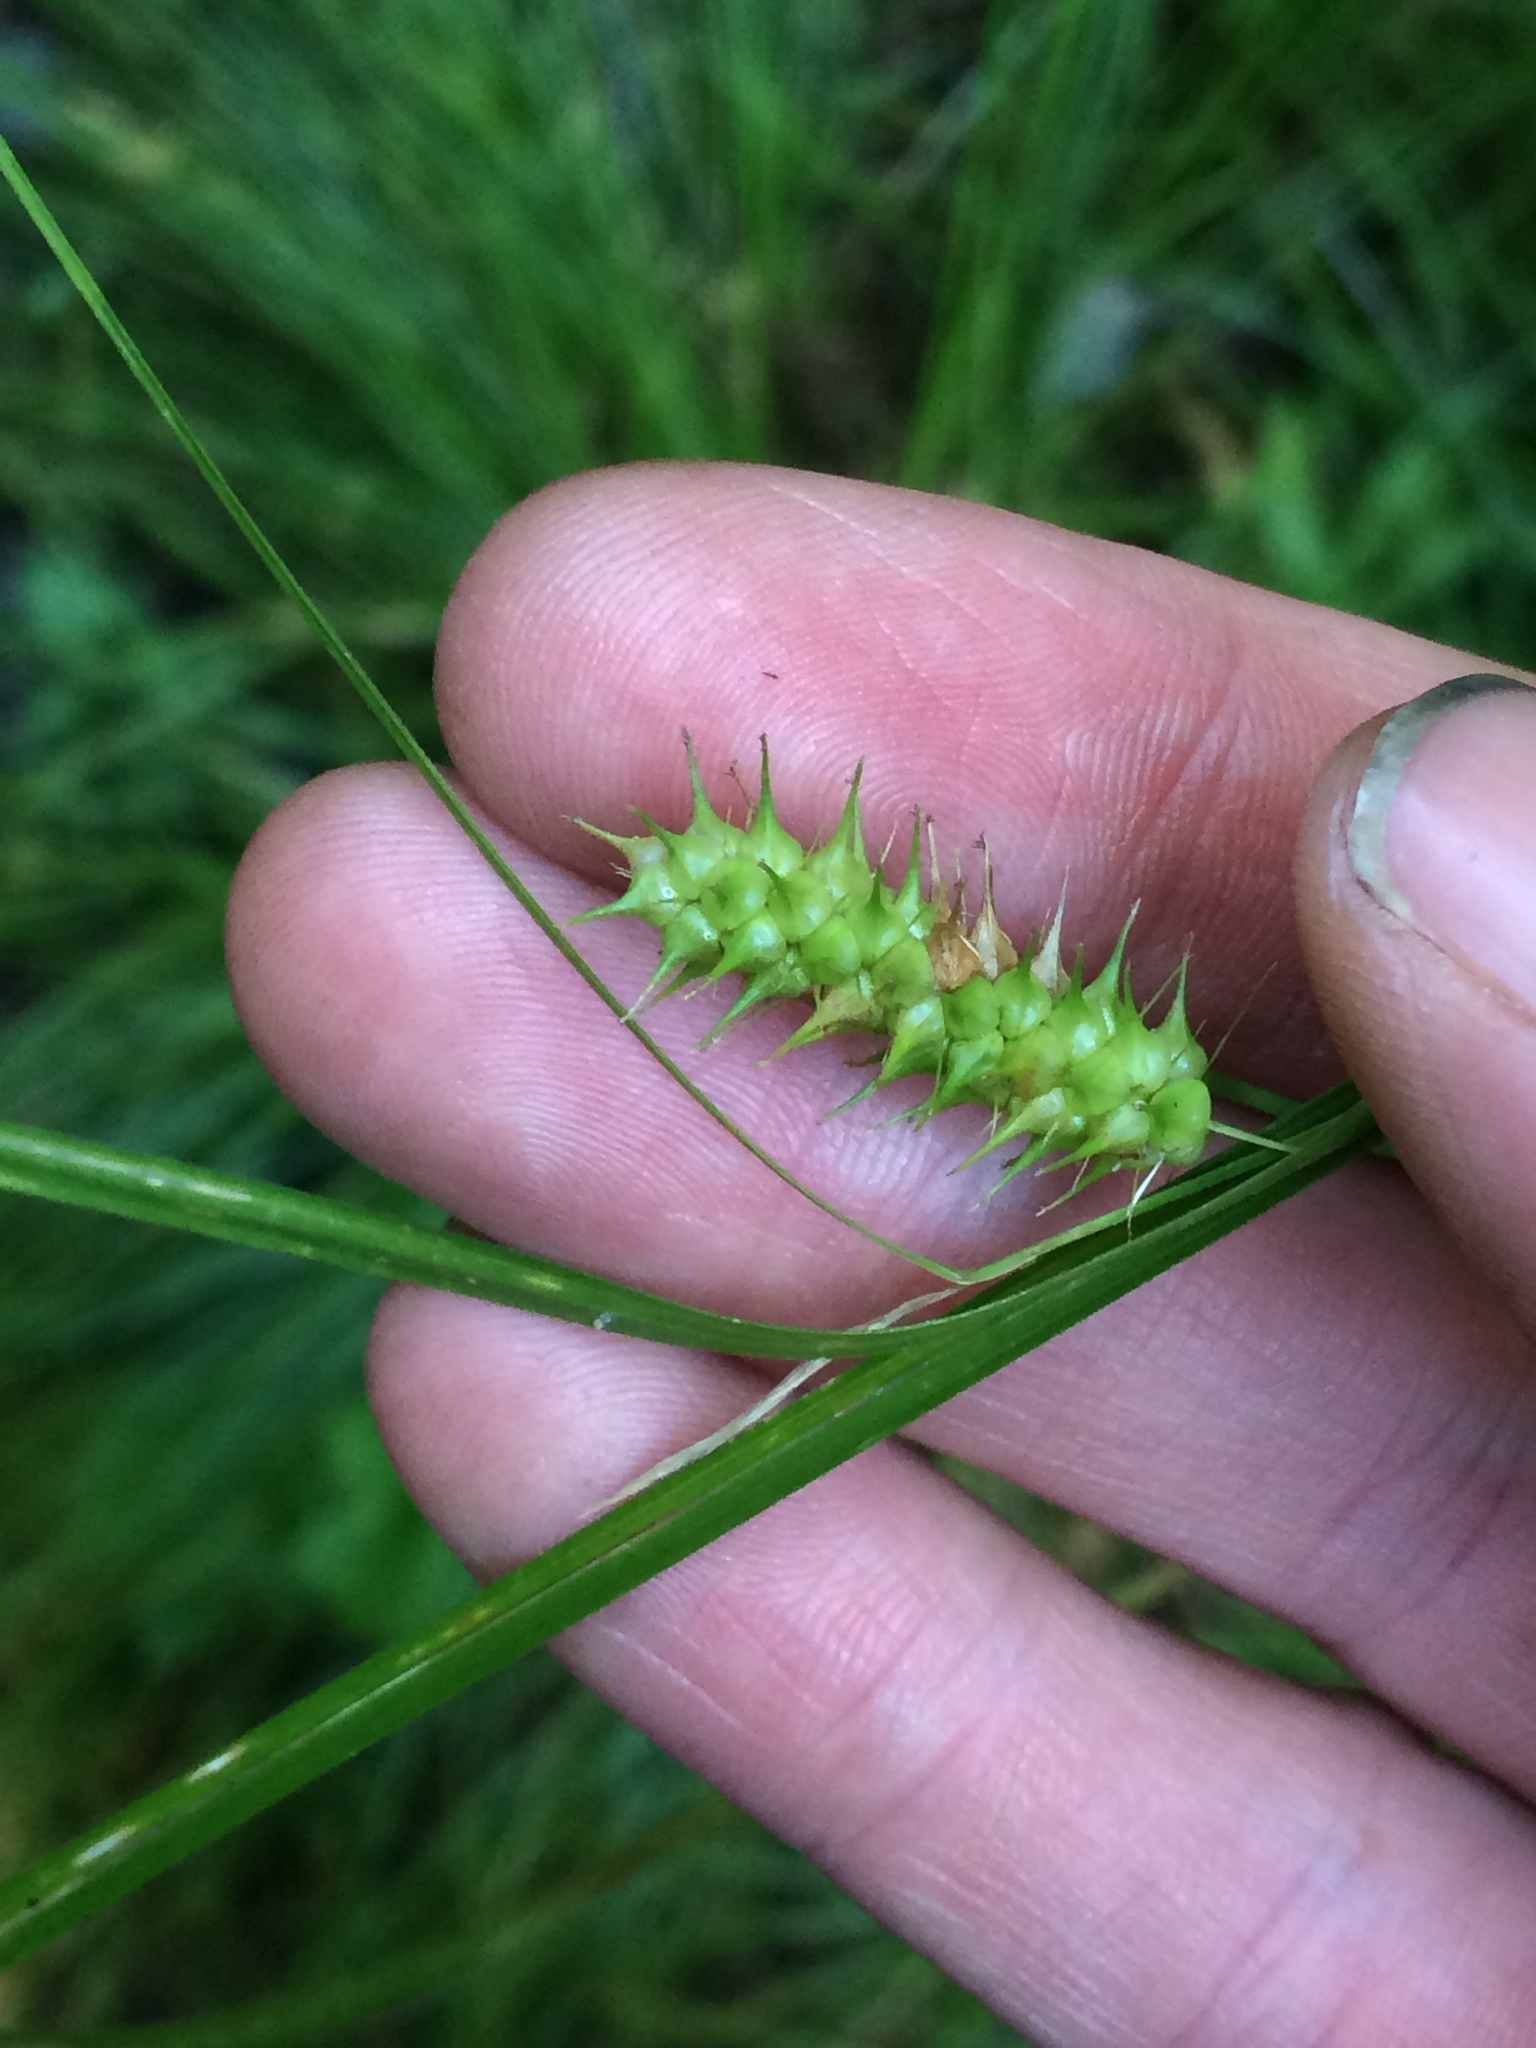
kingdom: Plantae
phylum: Tracheophyta
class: Liliopsida
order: Poales
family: Cyperaceae
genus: Carex
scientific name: Carex baileyi
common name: Bailey's sedge
